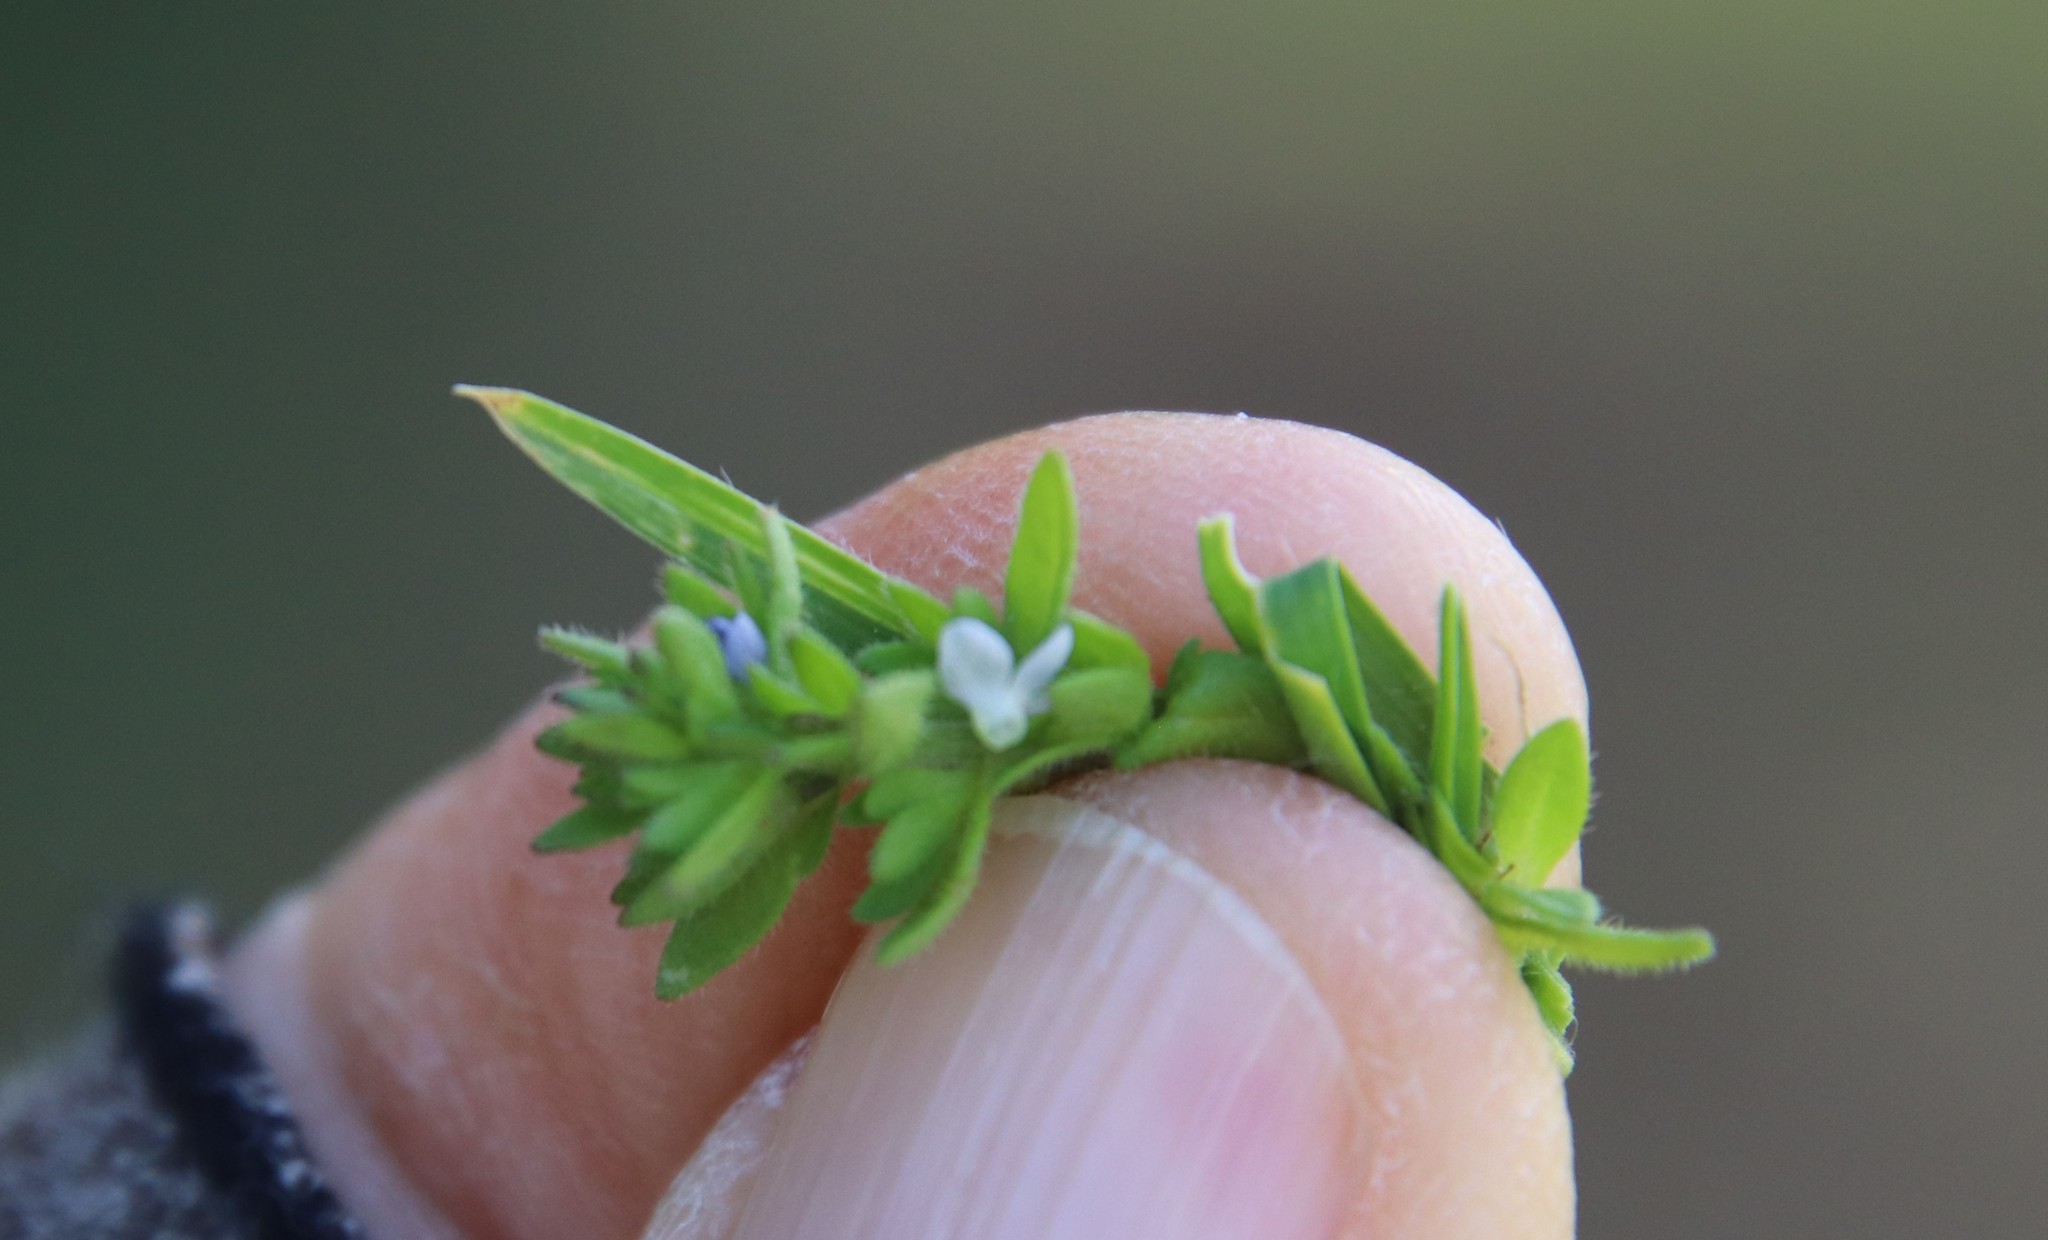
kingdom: Plantae
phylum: Tracheophyta
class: Magnoliopsida
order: Lamiales
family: Plantaginaceae
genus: Veronica
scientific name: Veronica arvensis
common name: Corn speedwell
